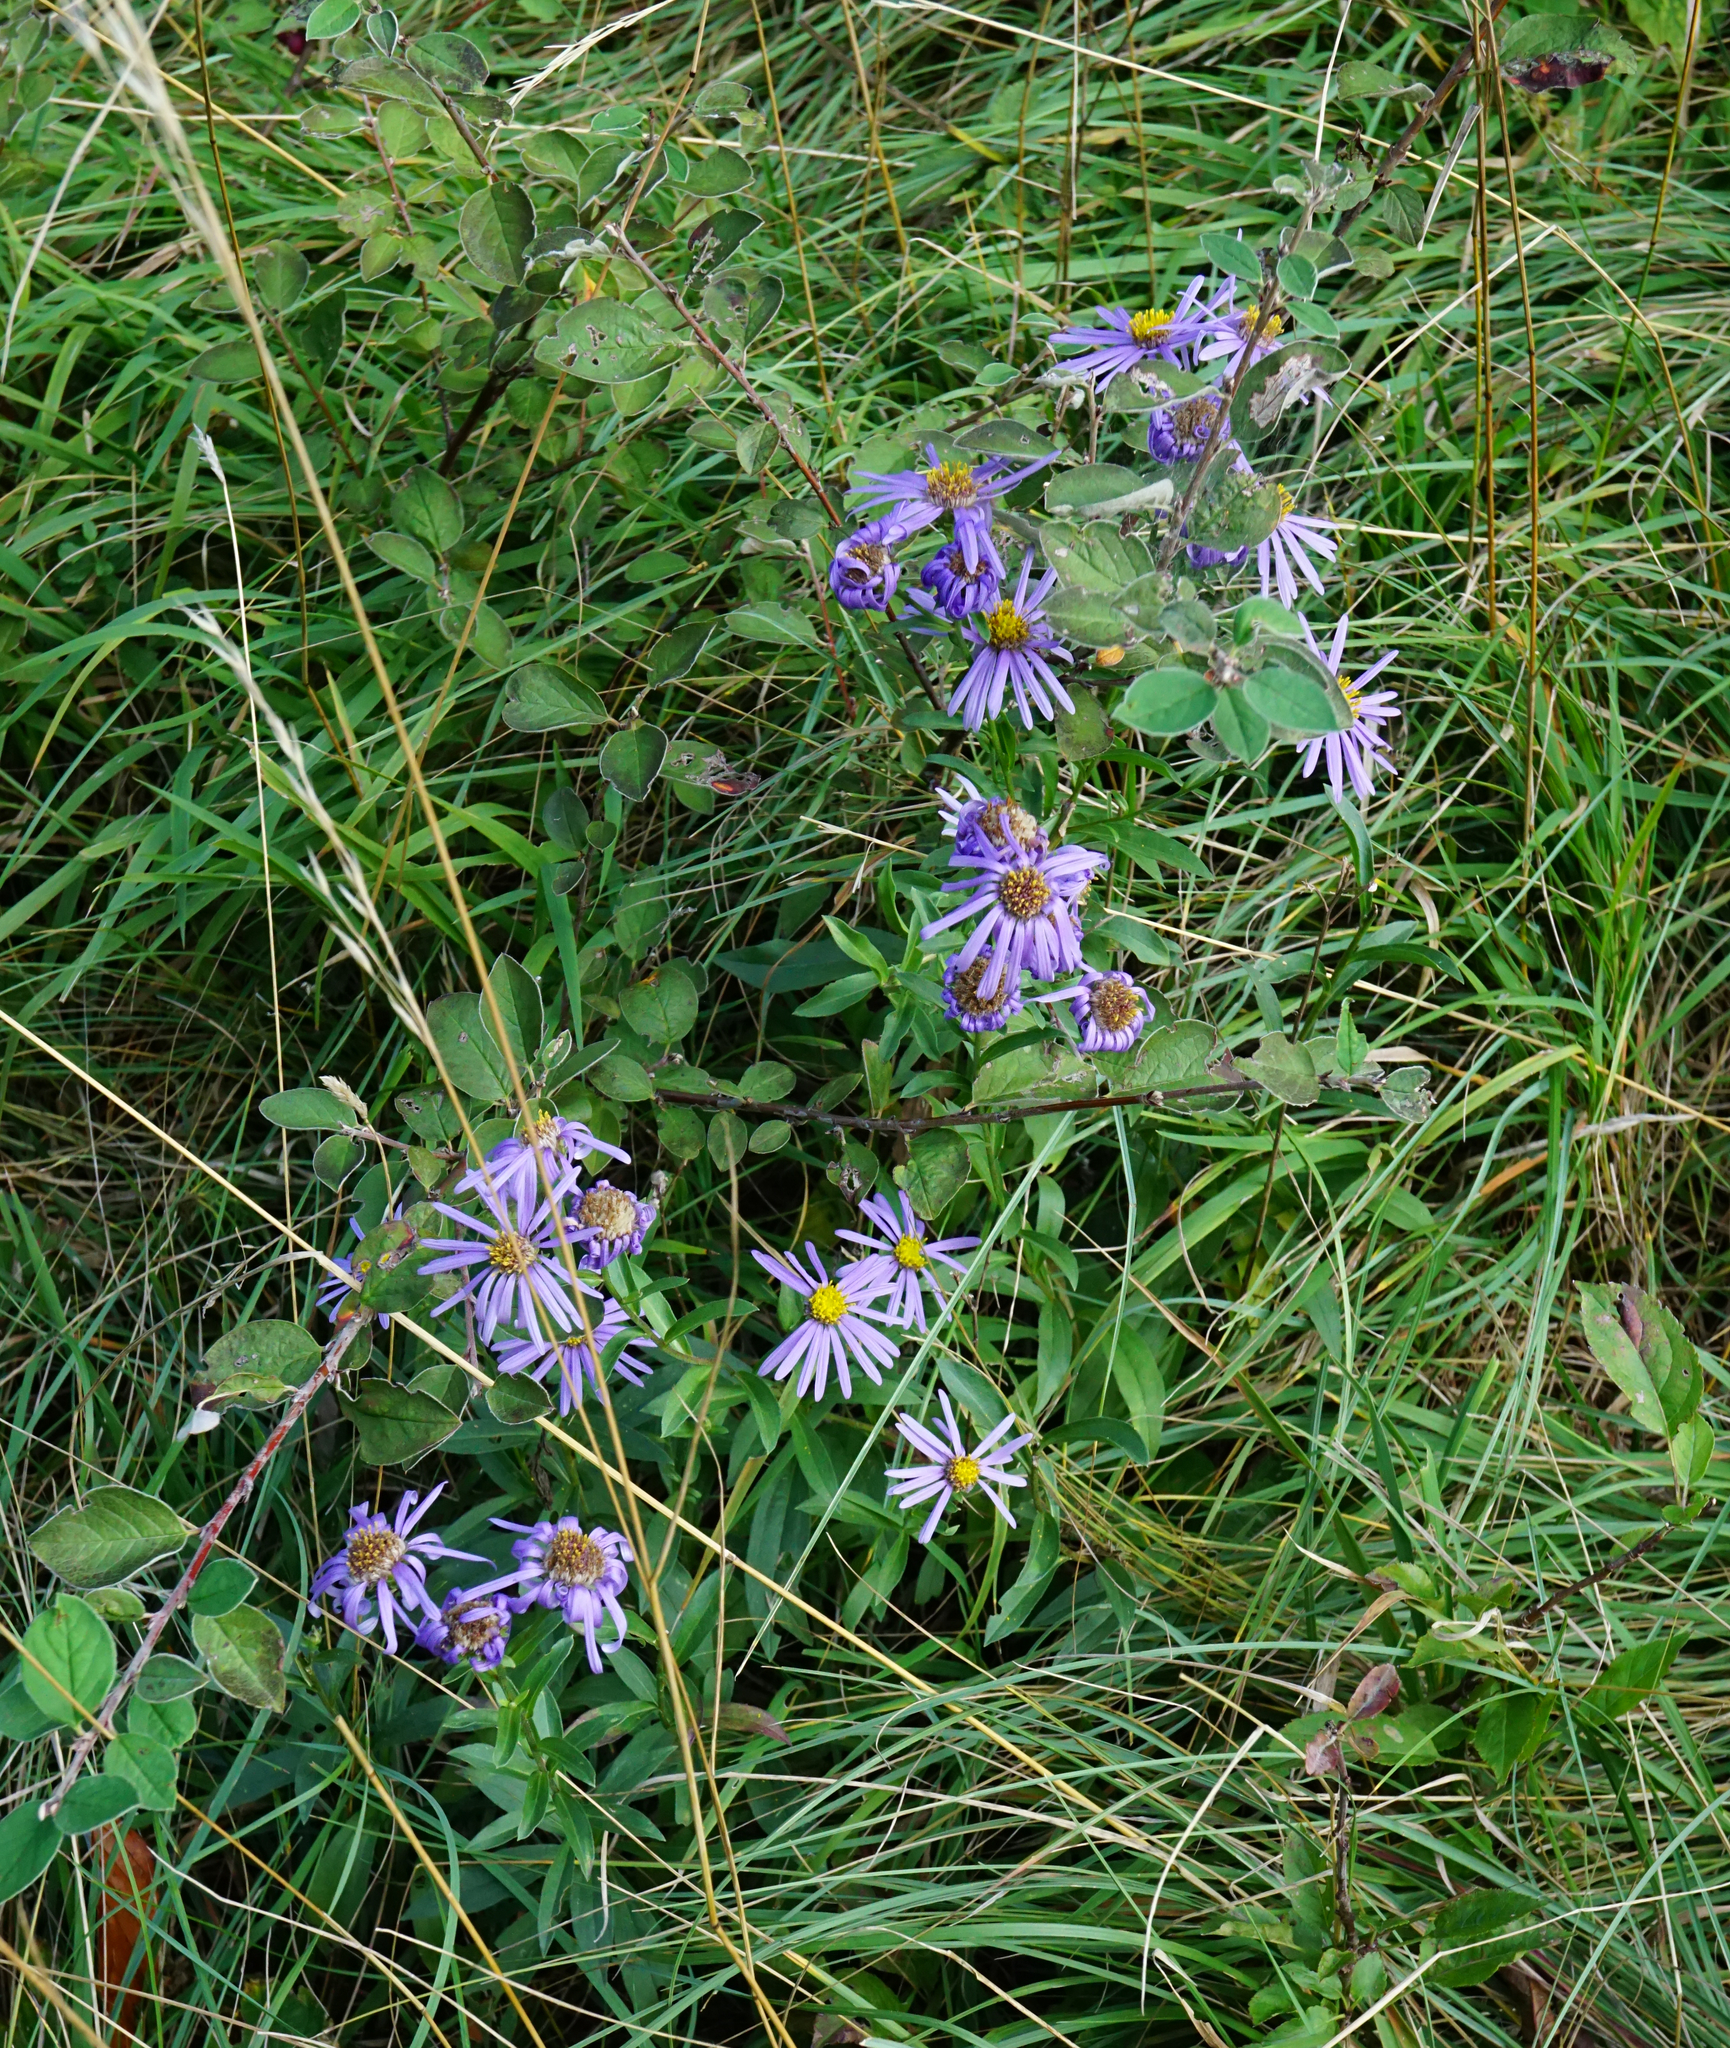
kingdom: Plantae
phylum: Tracheophyta
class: Magnoliopsida
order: Asterales
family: Asteraceae
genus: Aster
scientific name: Aster amellus
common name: European michaelmas daisy
